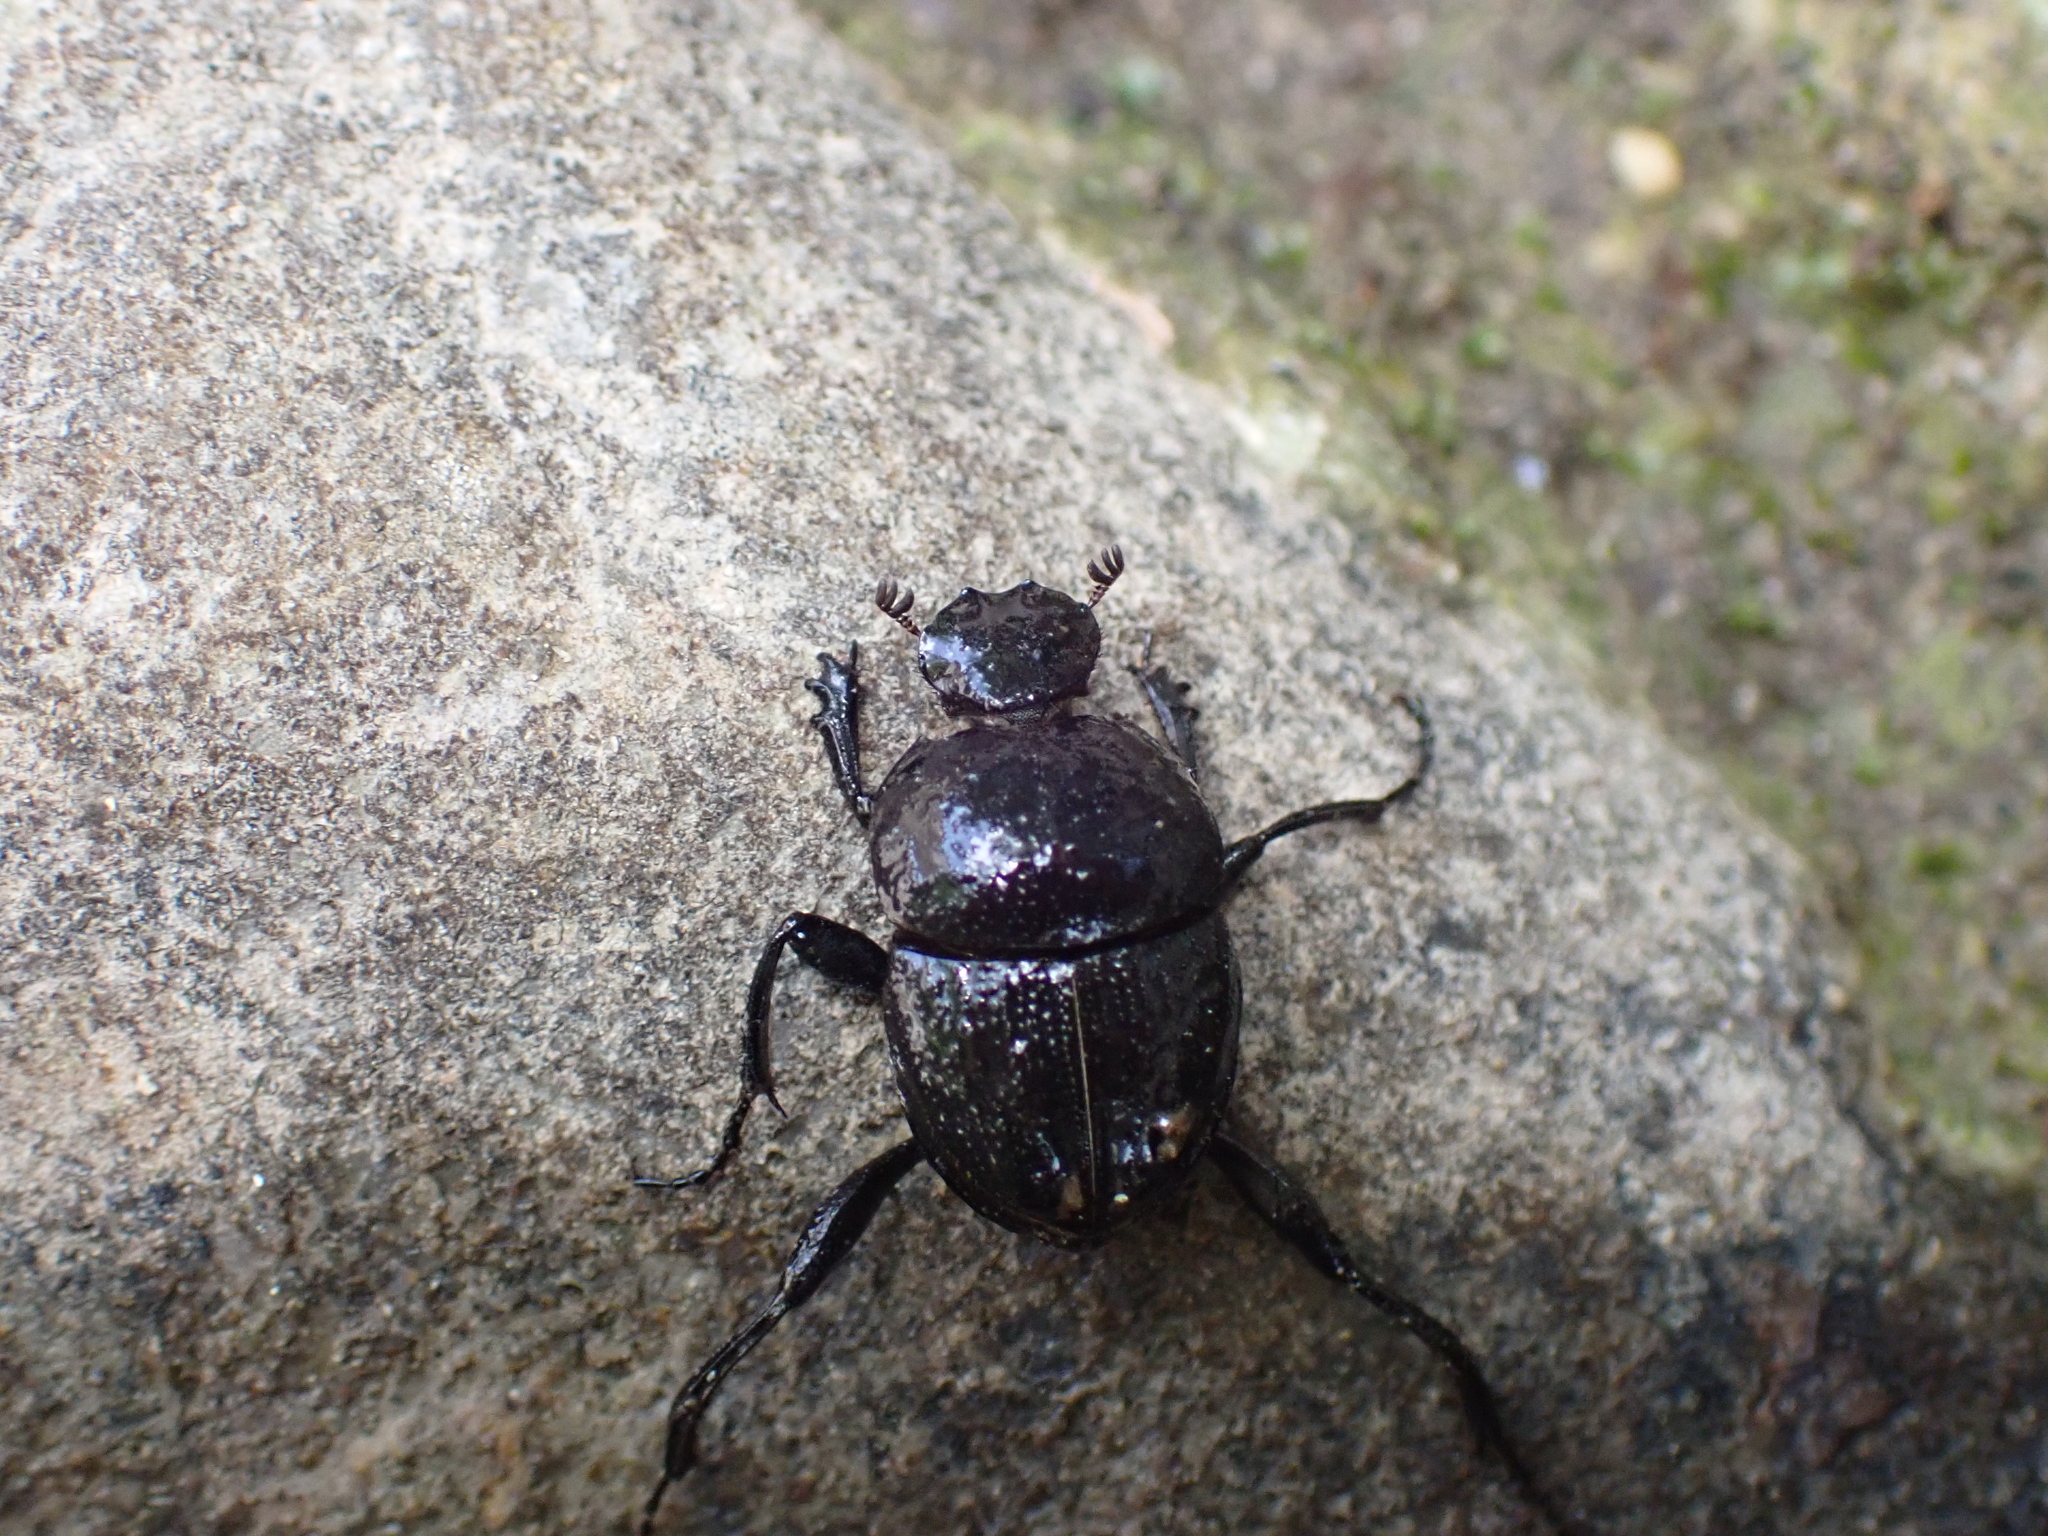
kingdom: Animalia
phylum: Arthropoda
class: Insecta
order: Coleoptera
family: Scarabaeidae
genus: Sisyphus
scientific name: Sisyphus schaefferi
